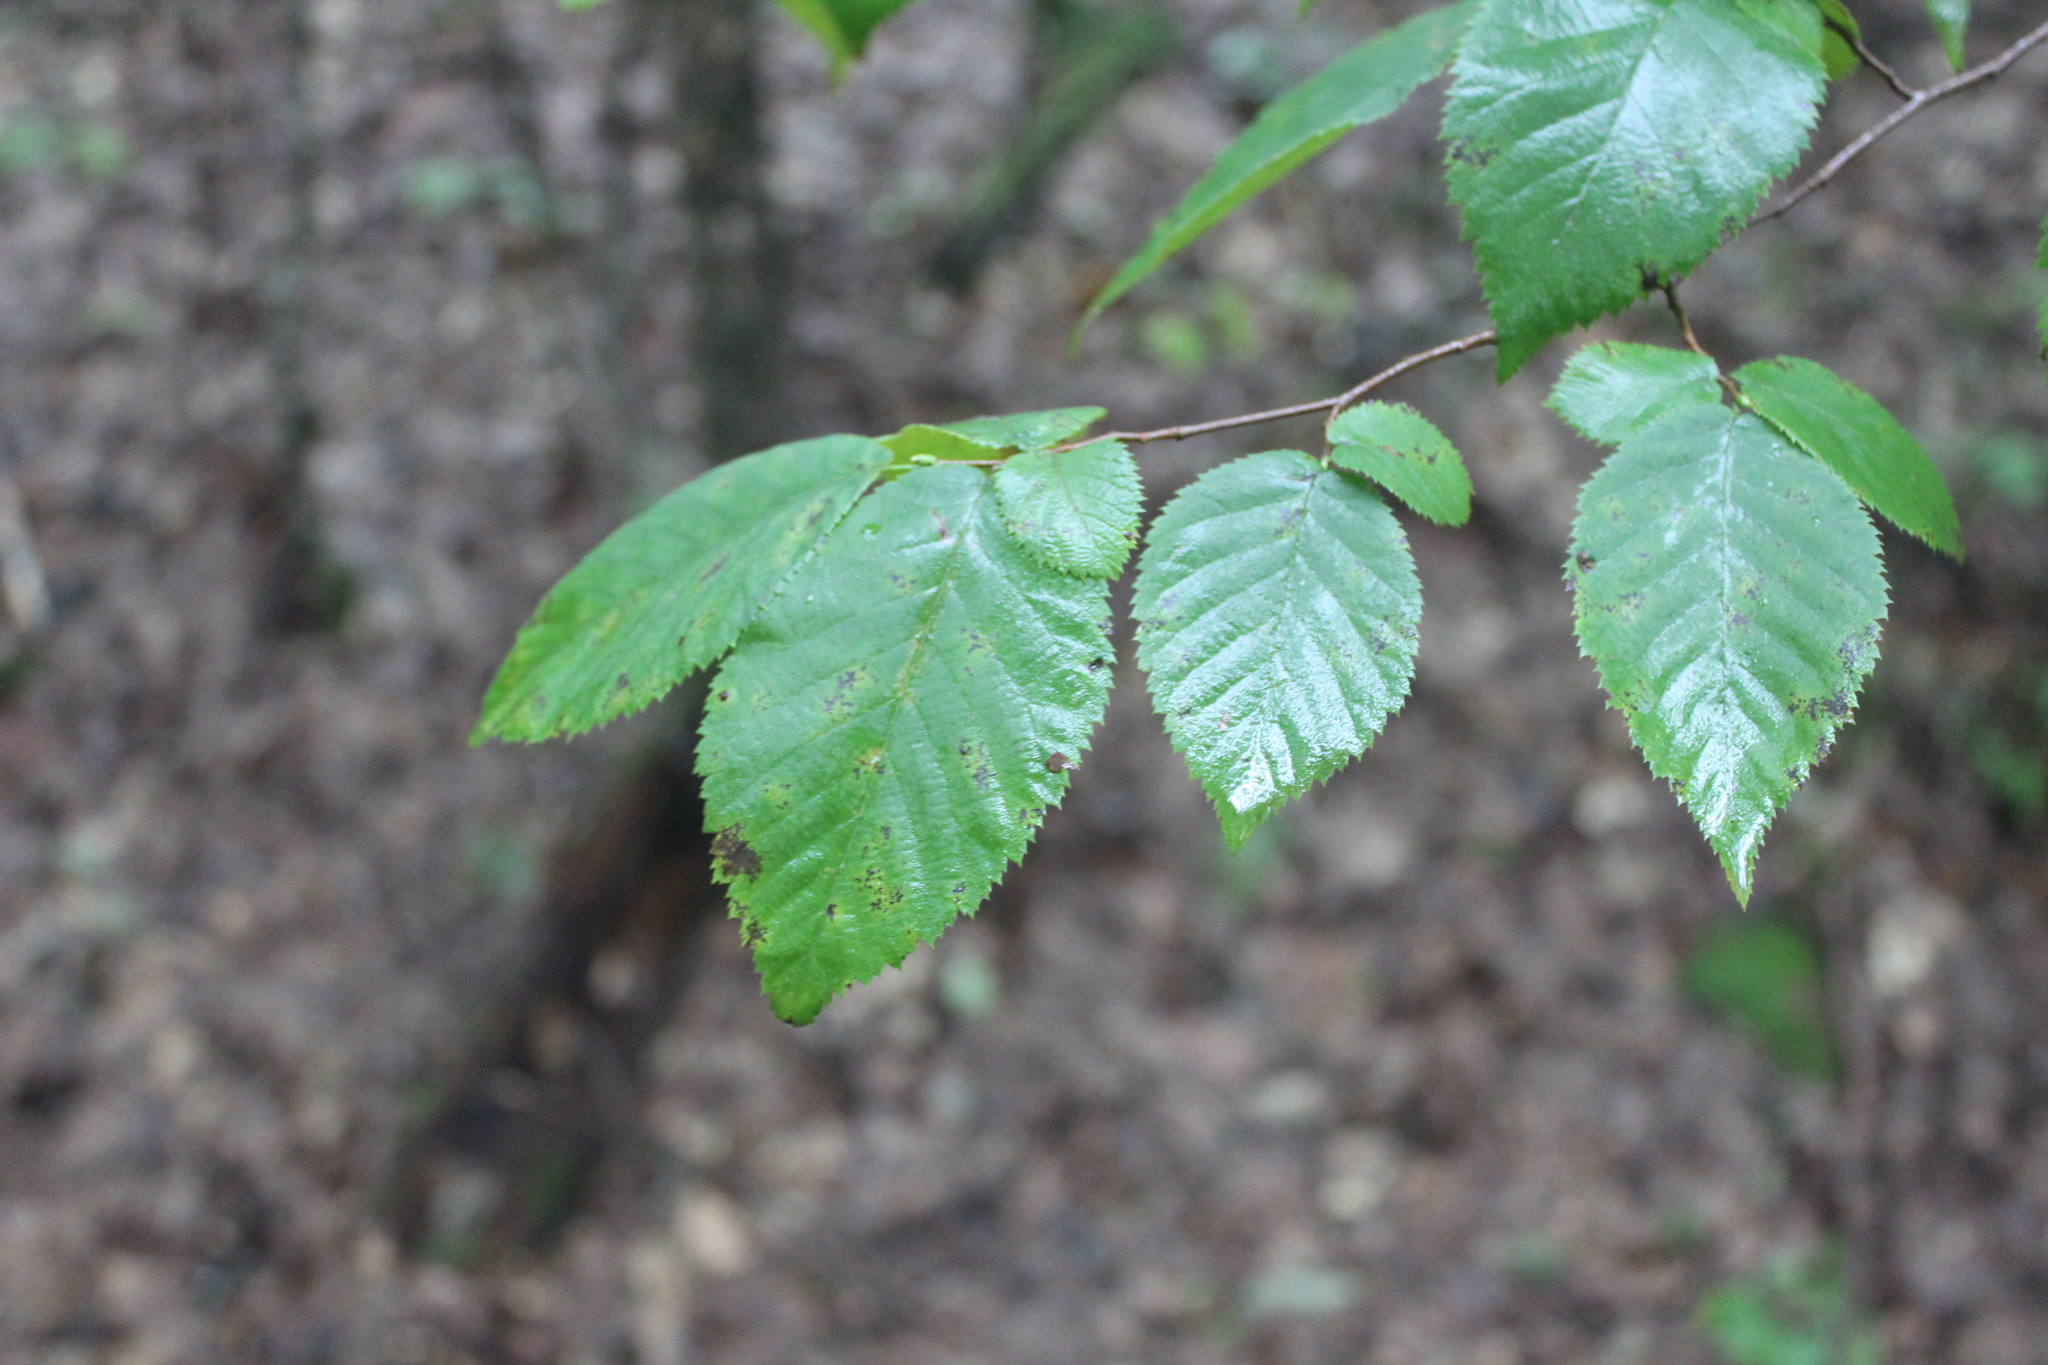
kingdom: Plantae
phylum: Tracheophyta
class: Magnoliopsida
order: Fagales
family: Betulaceae
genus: Ostrya
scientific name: Ostrya virginiana
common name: Ironwood
